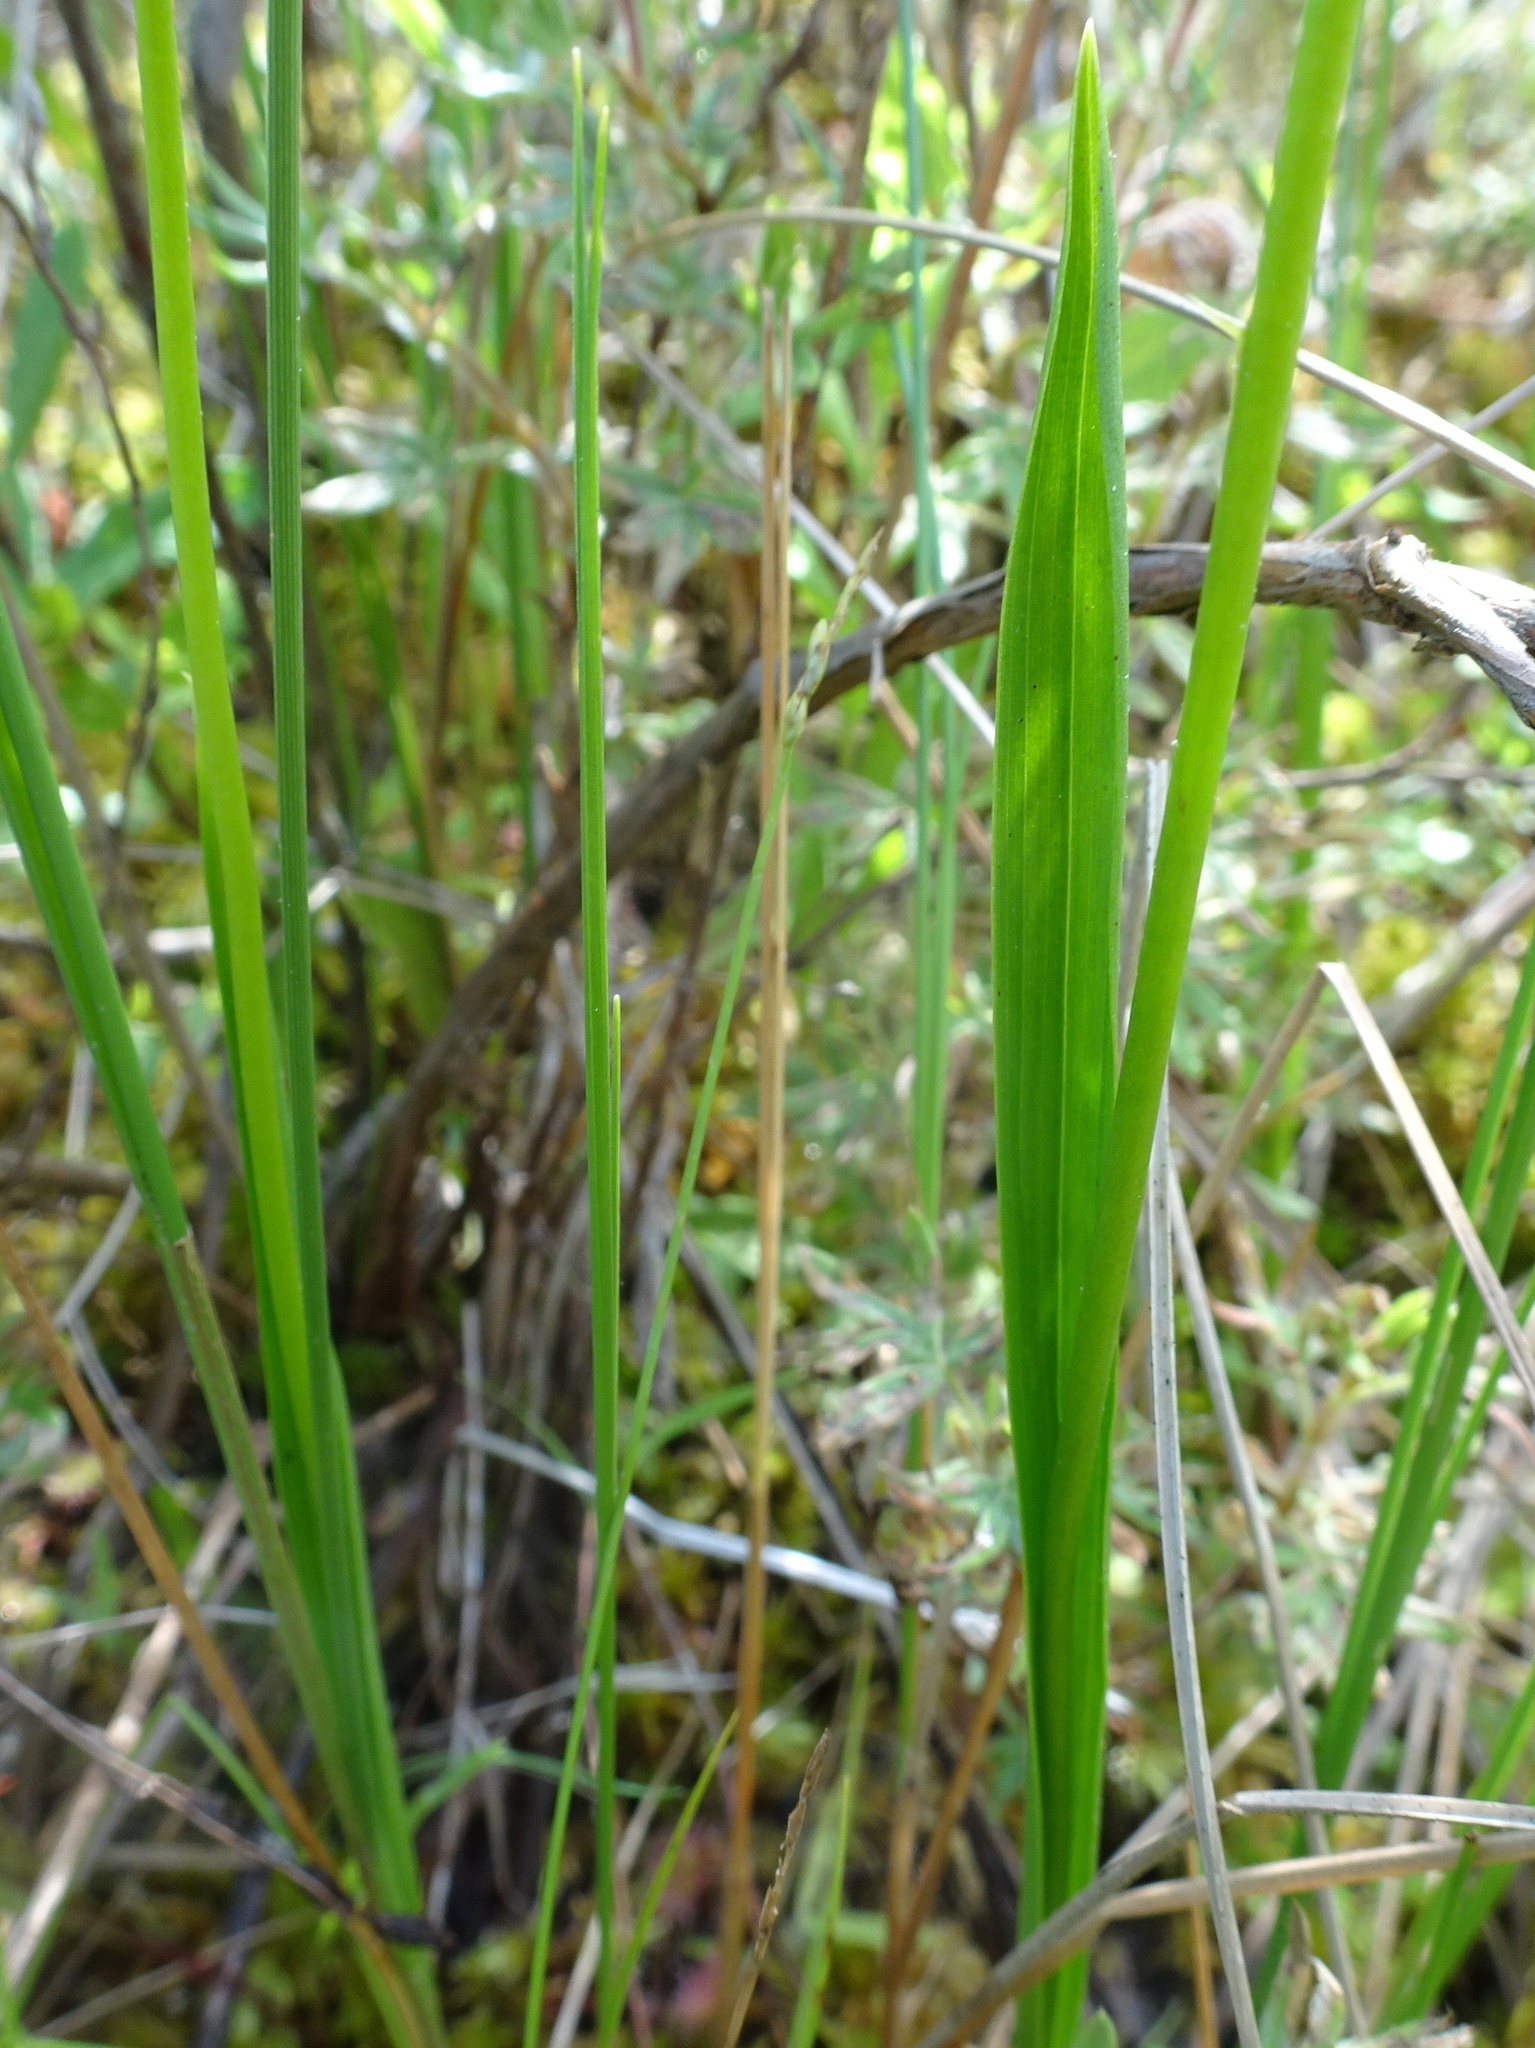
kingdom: Plantae
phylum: Tracheophyta
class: Liliopsida
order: Asparagales
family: Orchidaceae
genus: Calopogon
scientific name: Calopogon tuberosus
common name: Grass-pink
